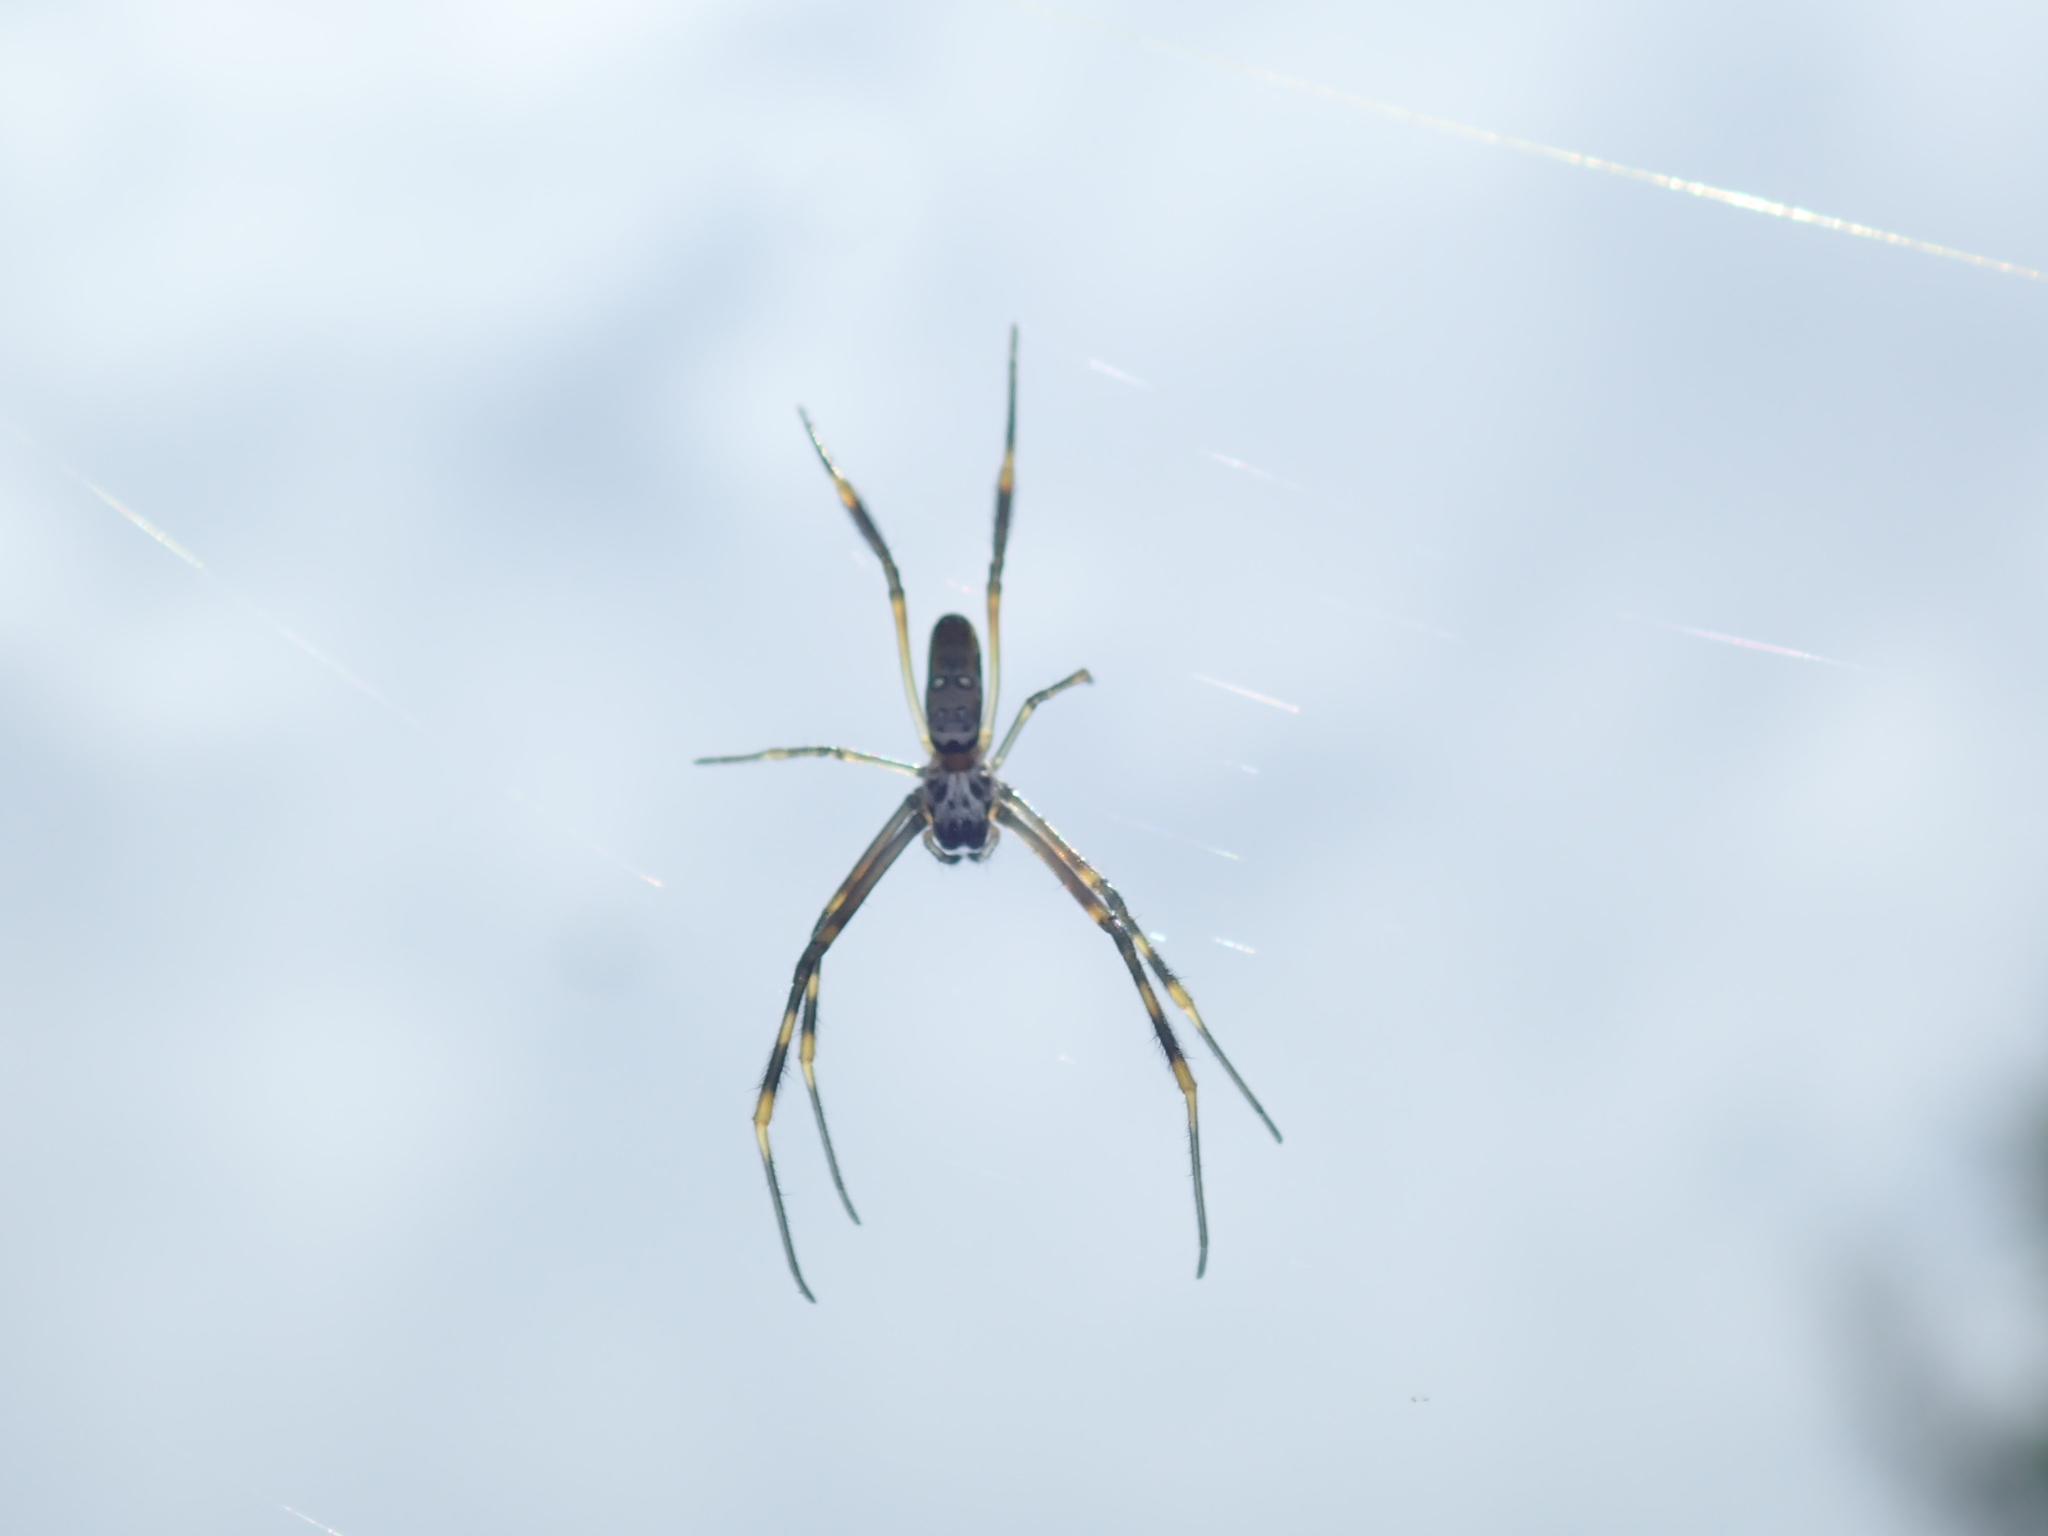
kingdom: Animalia
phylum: Arthropoda
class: Arachnida
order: Araneae
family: Araneidae
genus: Trichonephila
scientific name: Trichonephila plumipes
